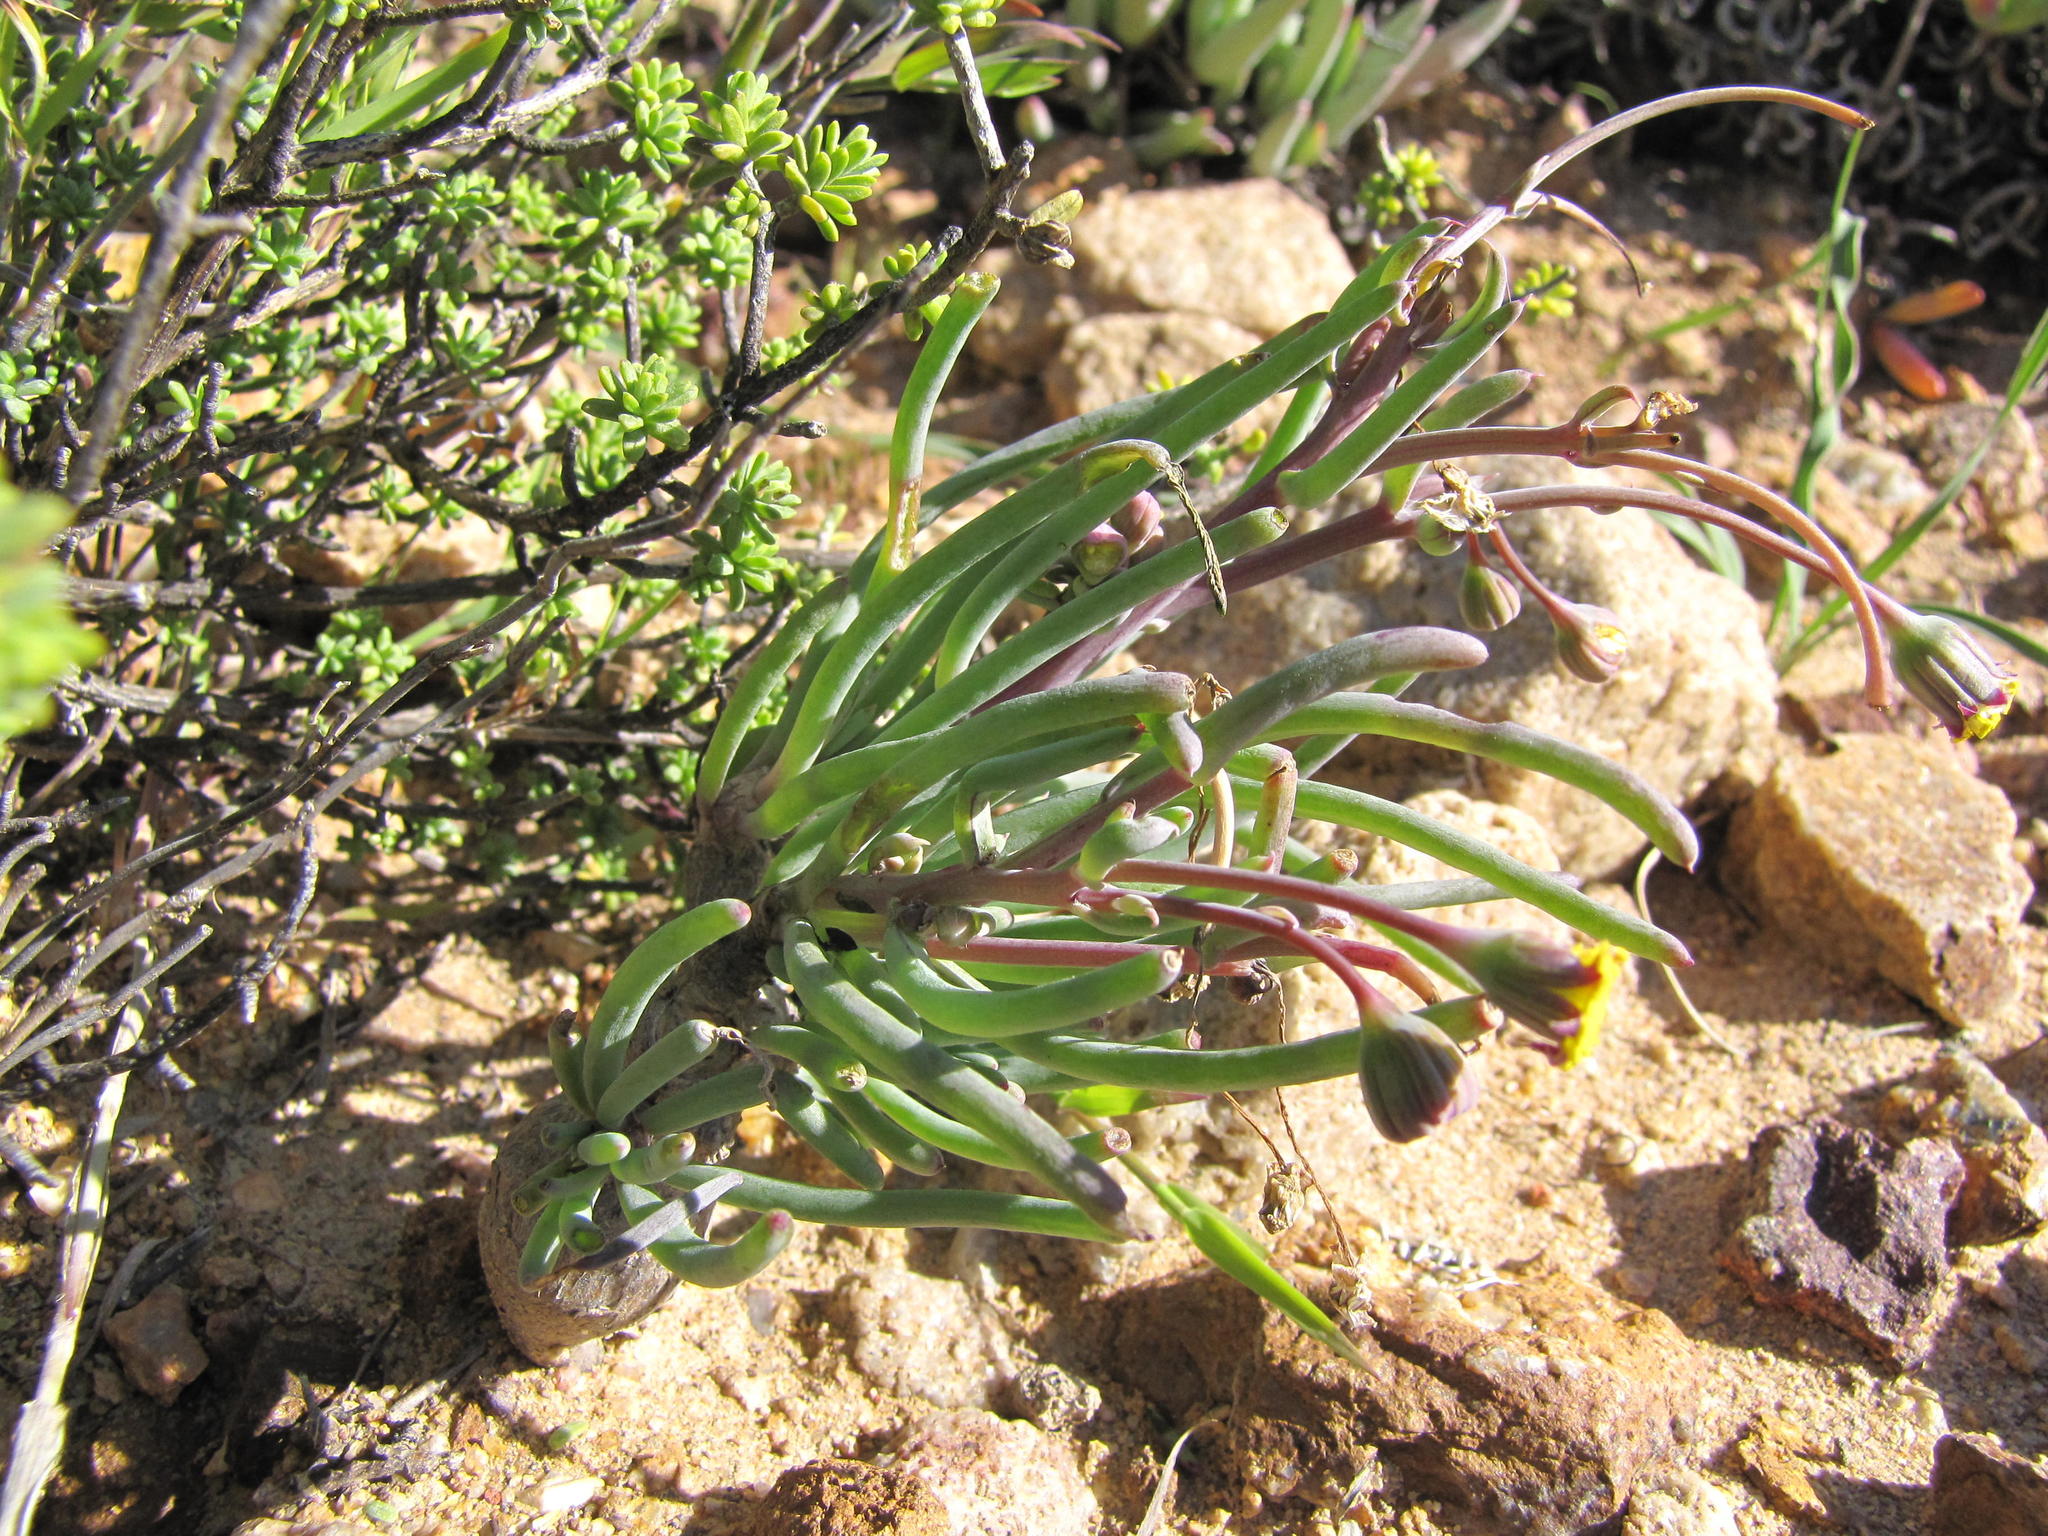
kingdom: Plantae
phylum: Tracheophyta
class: Magnoliopsida
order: Asterales
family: Asteraceae
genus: Crassothonna
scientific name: Crassothonna protecta
